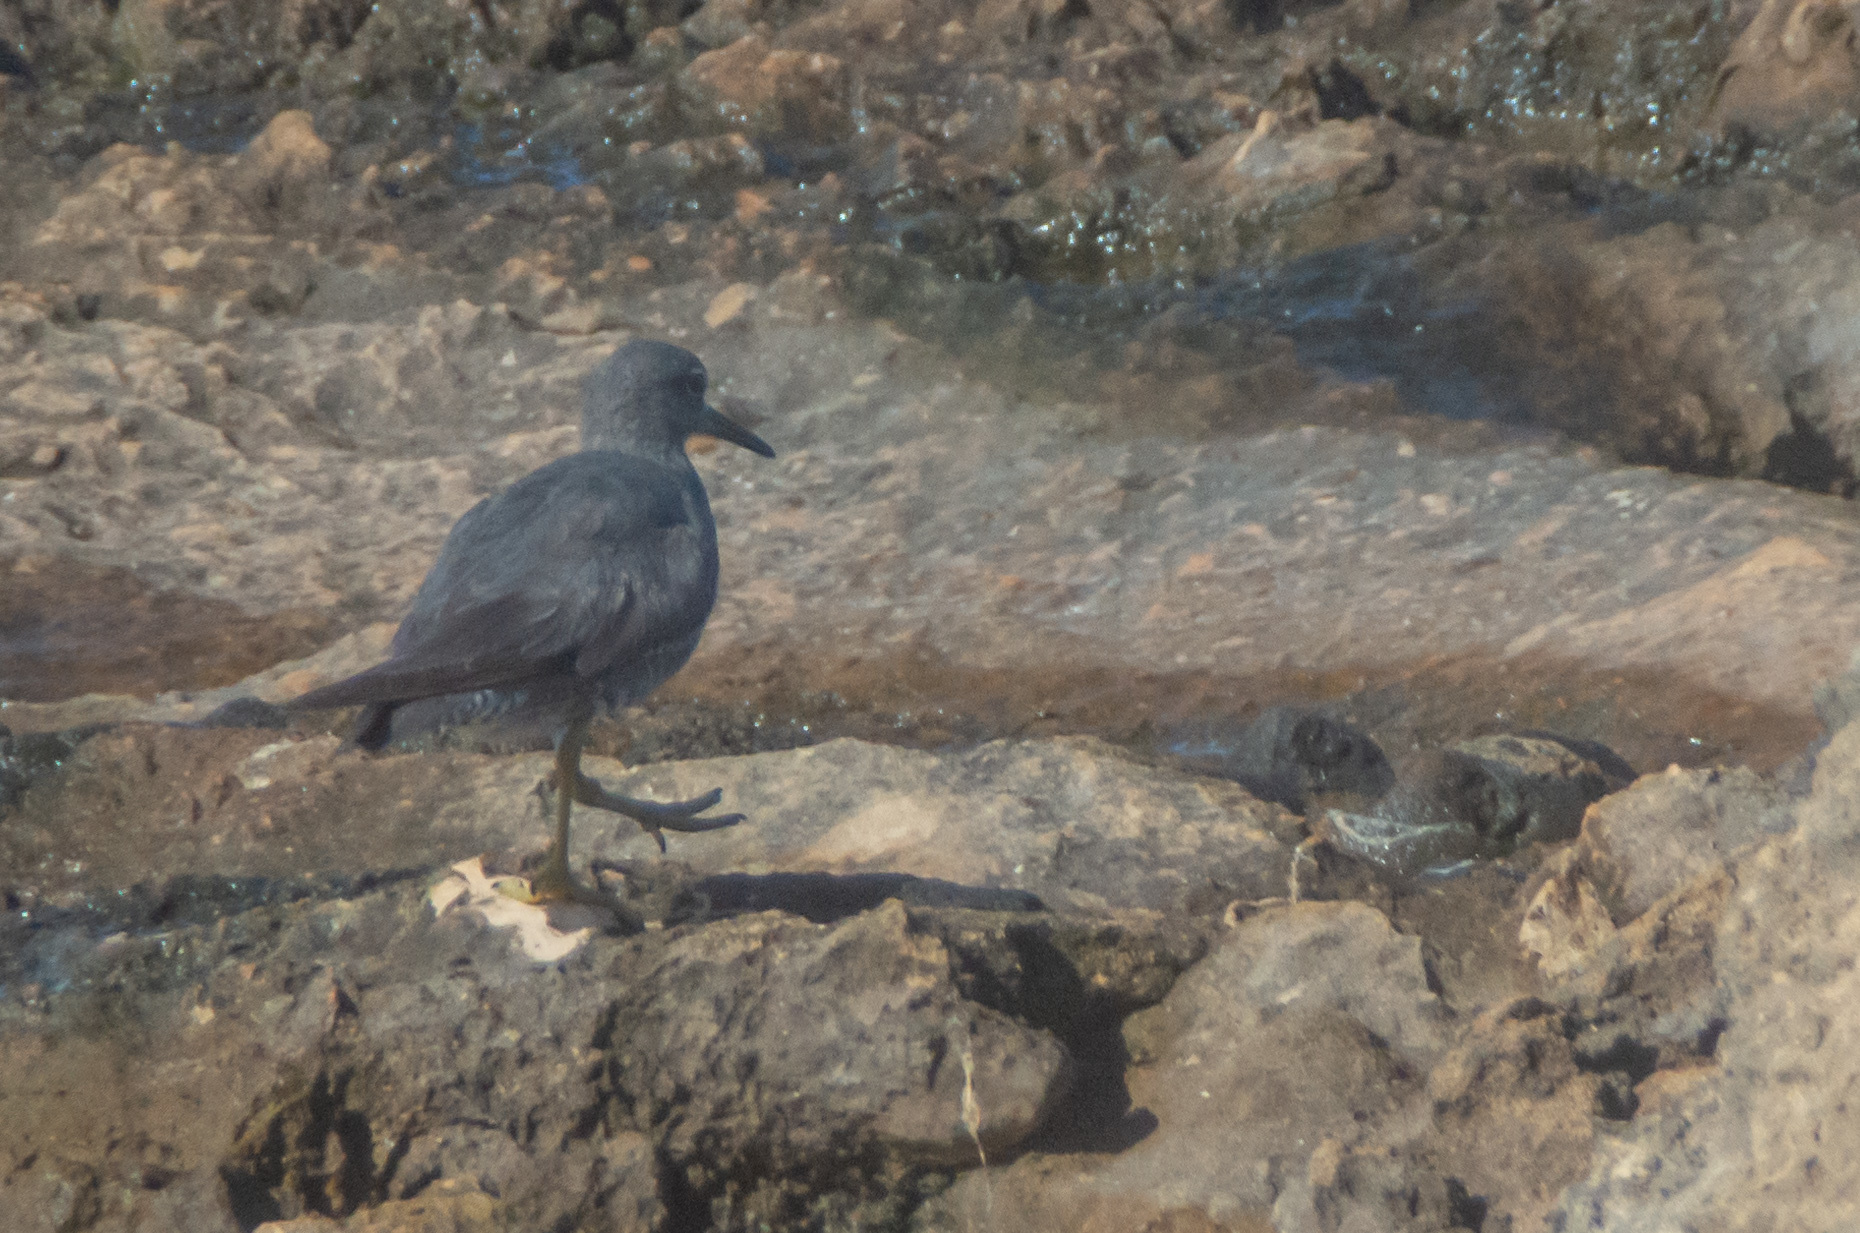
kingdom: Animalia
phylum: Chordata
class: Aves
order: Charadriiformes
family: Scolopacidae
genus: Tringa
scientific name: Tringa incana
